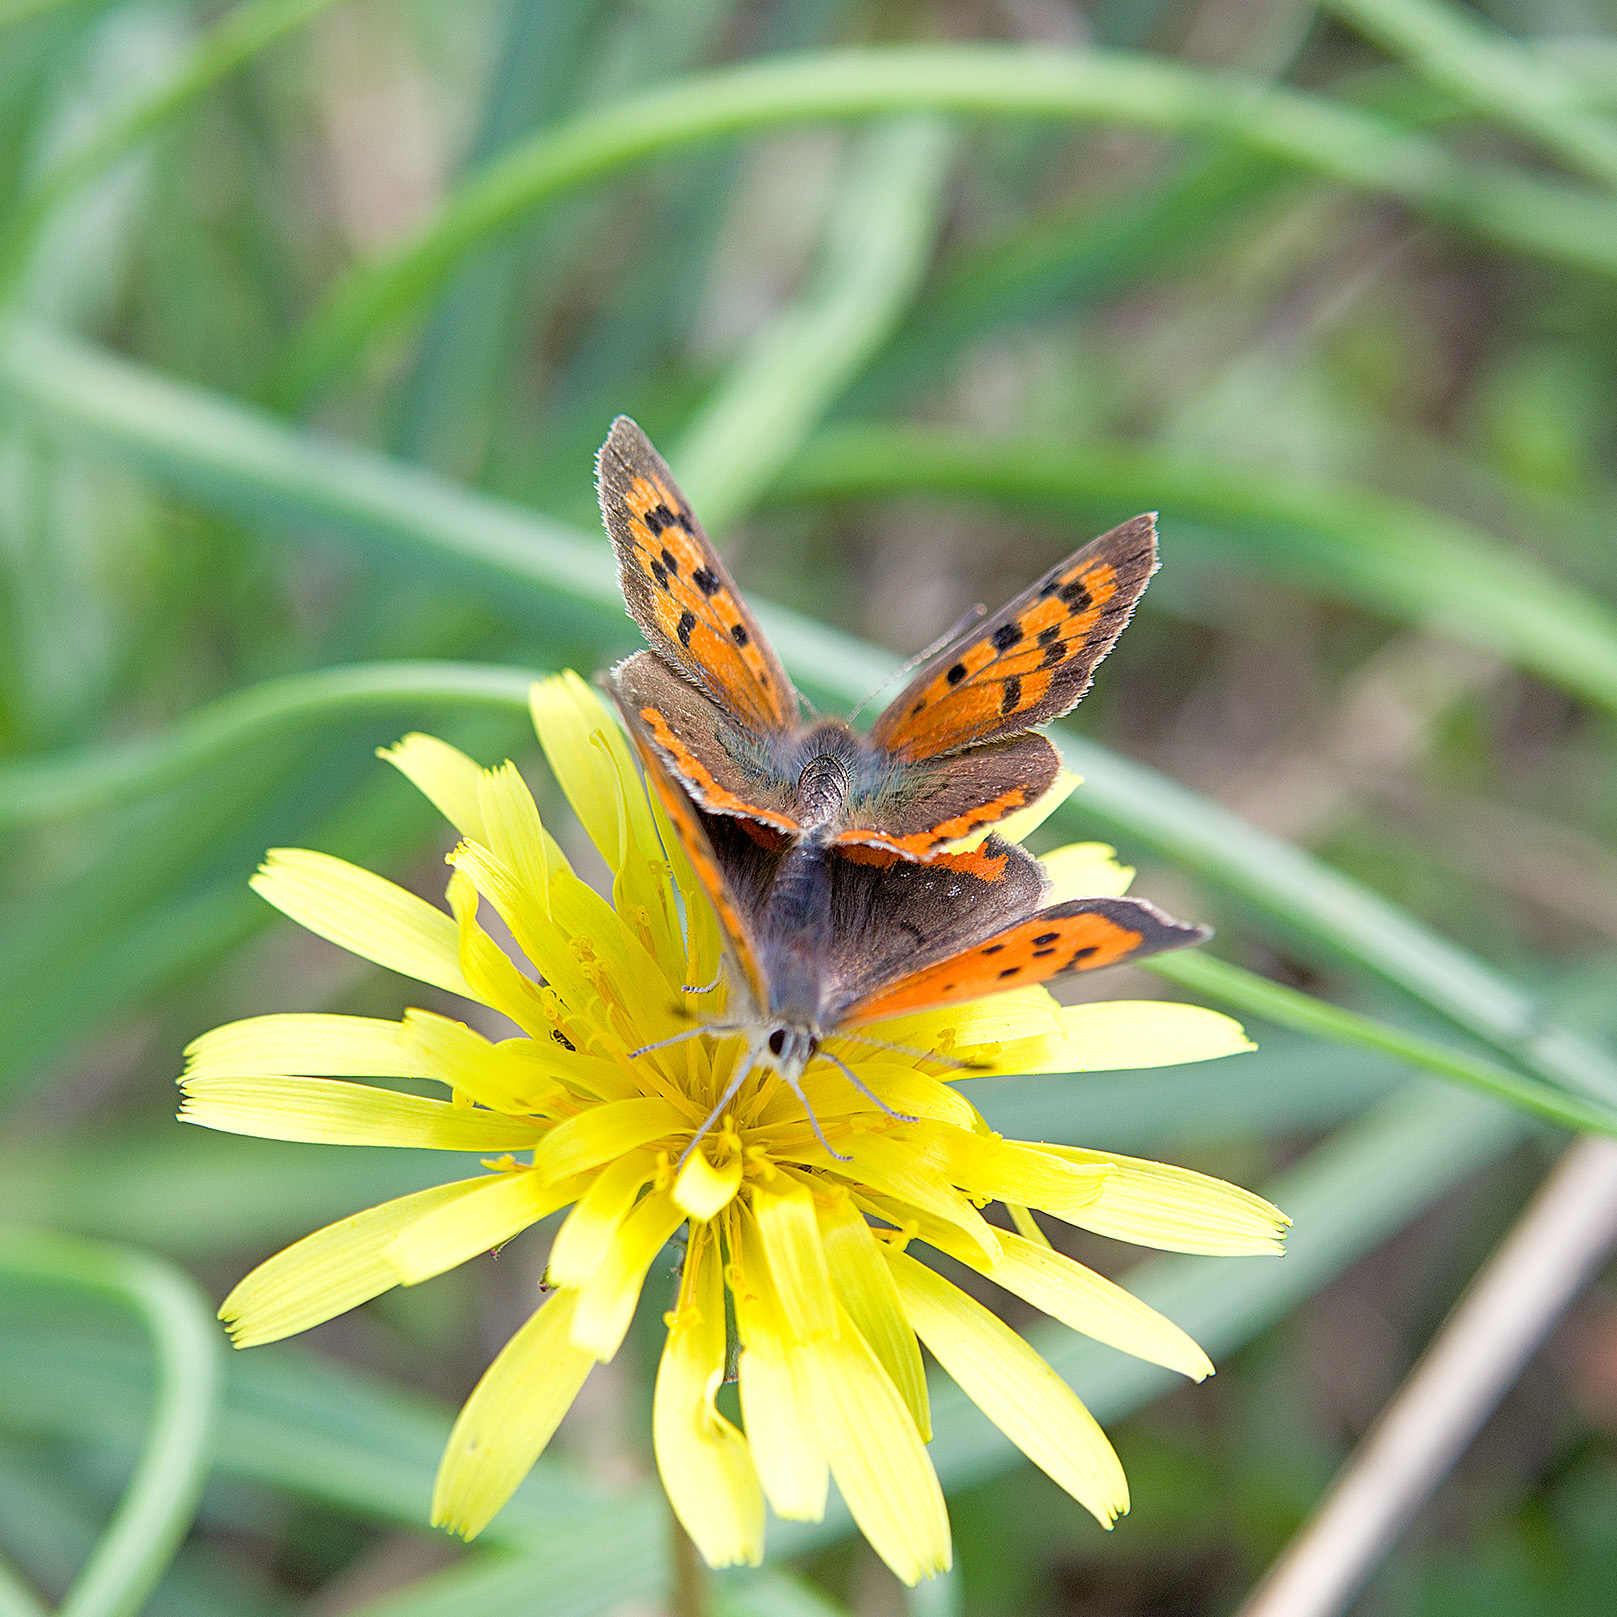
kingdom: Animalia
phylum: Arthropoda
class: Insecta
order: Lepidoptera
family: Lycaenidae
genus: Lycaena
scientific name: Lycaena phlaeas
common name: Small copper
